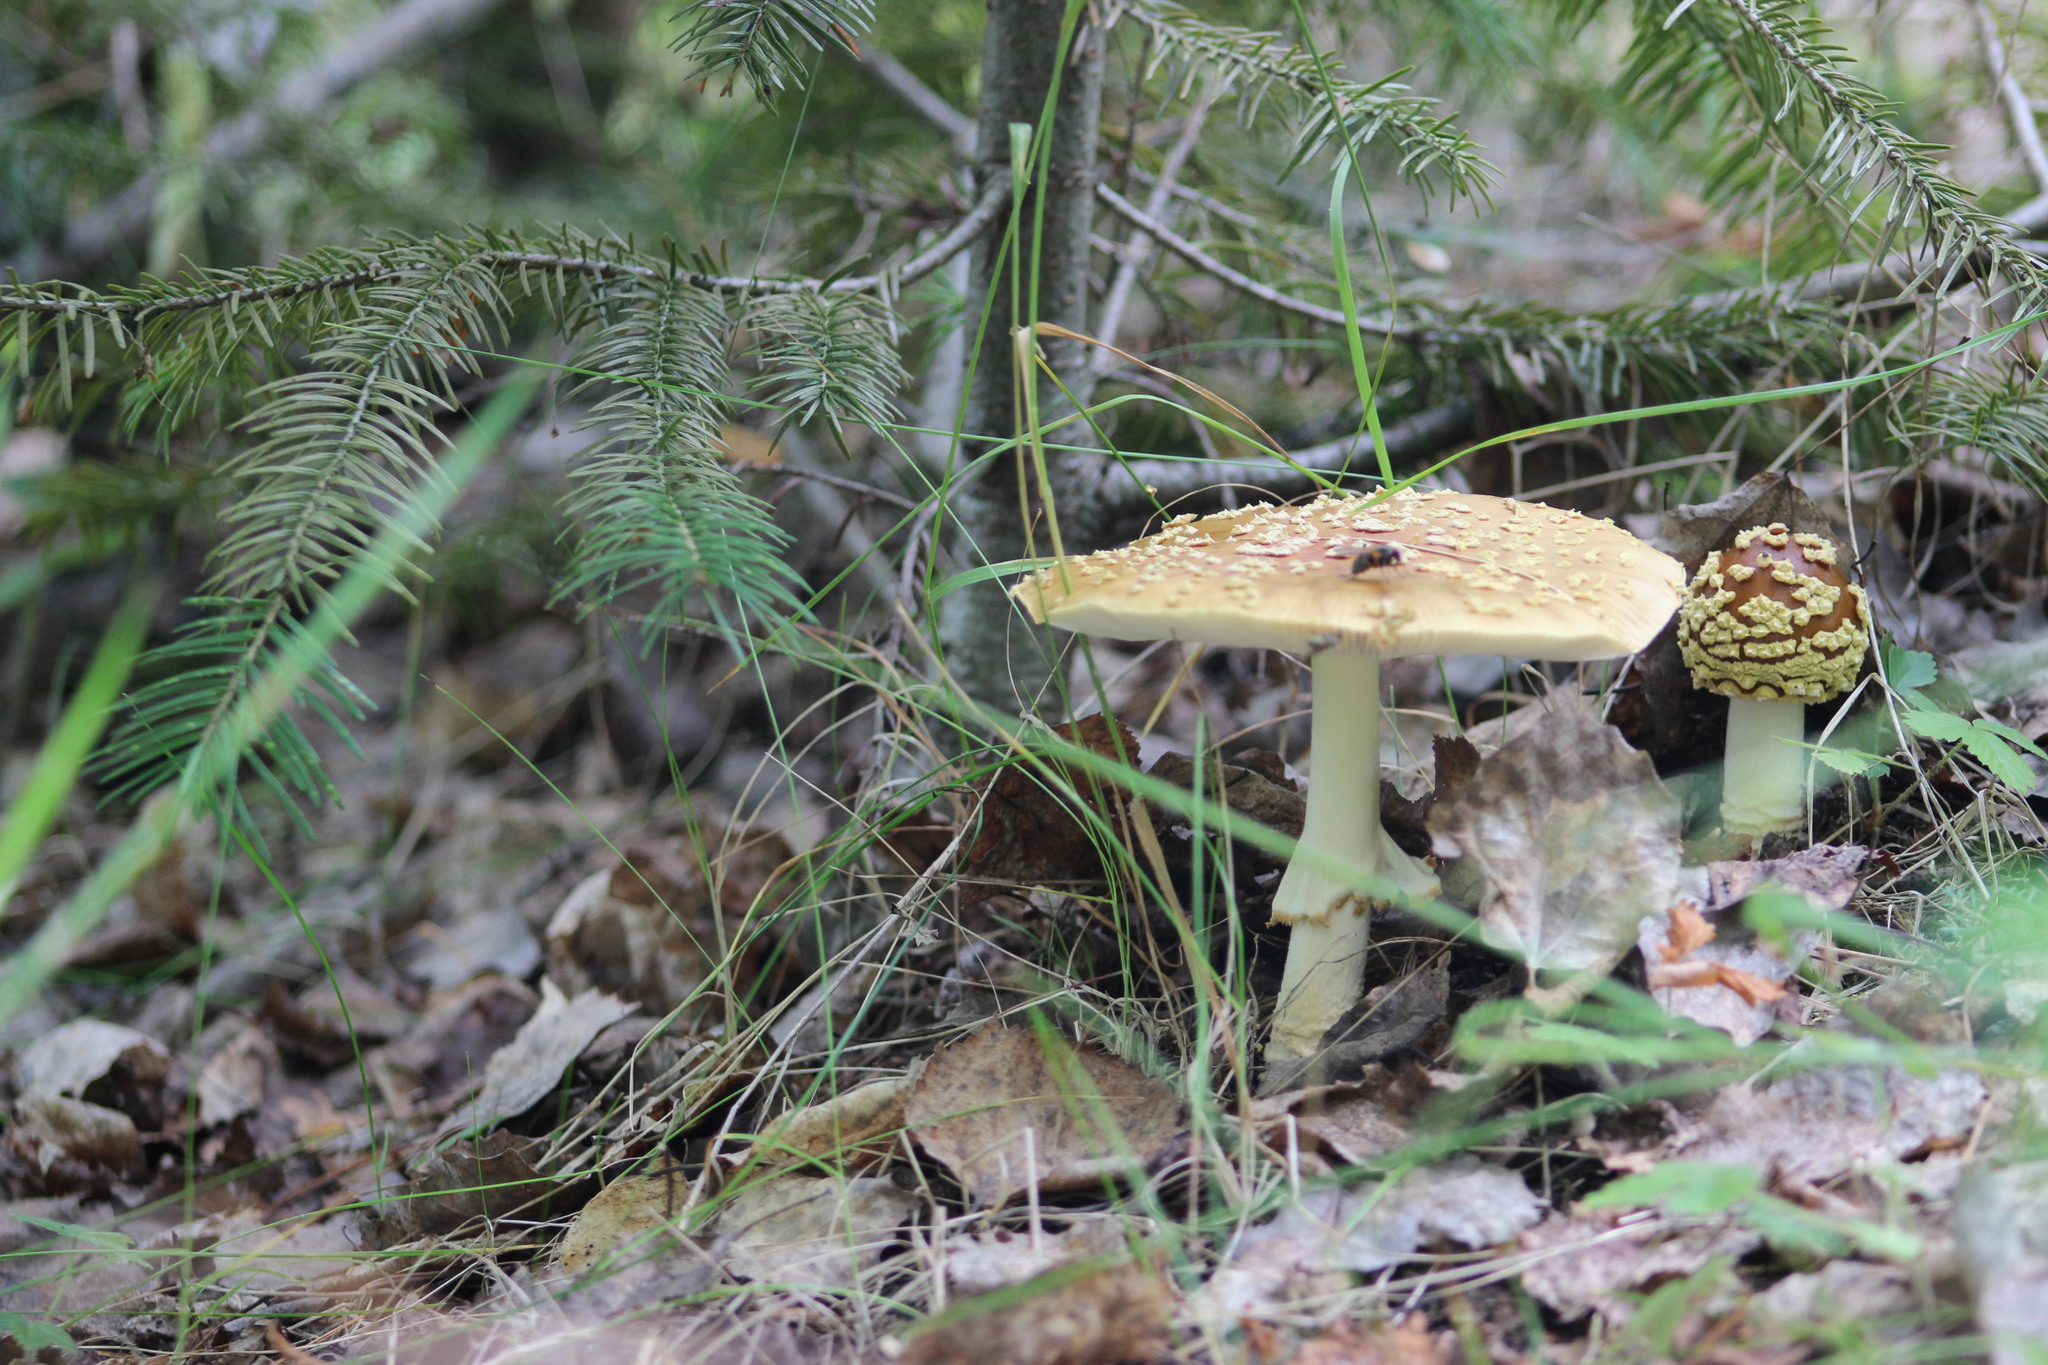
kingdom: Fungi
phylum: Basidiomycota
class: Agaricomycetes
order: Agaricales
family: Amanitaceae
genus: Amanita
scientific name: Amanita regalis
